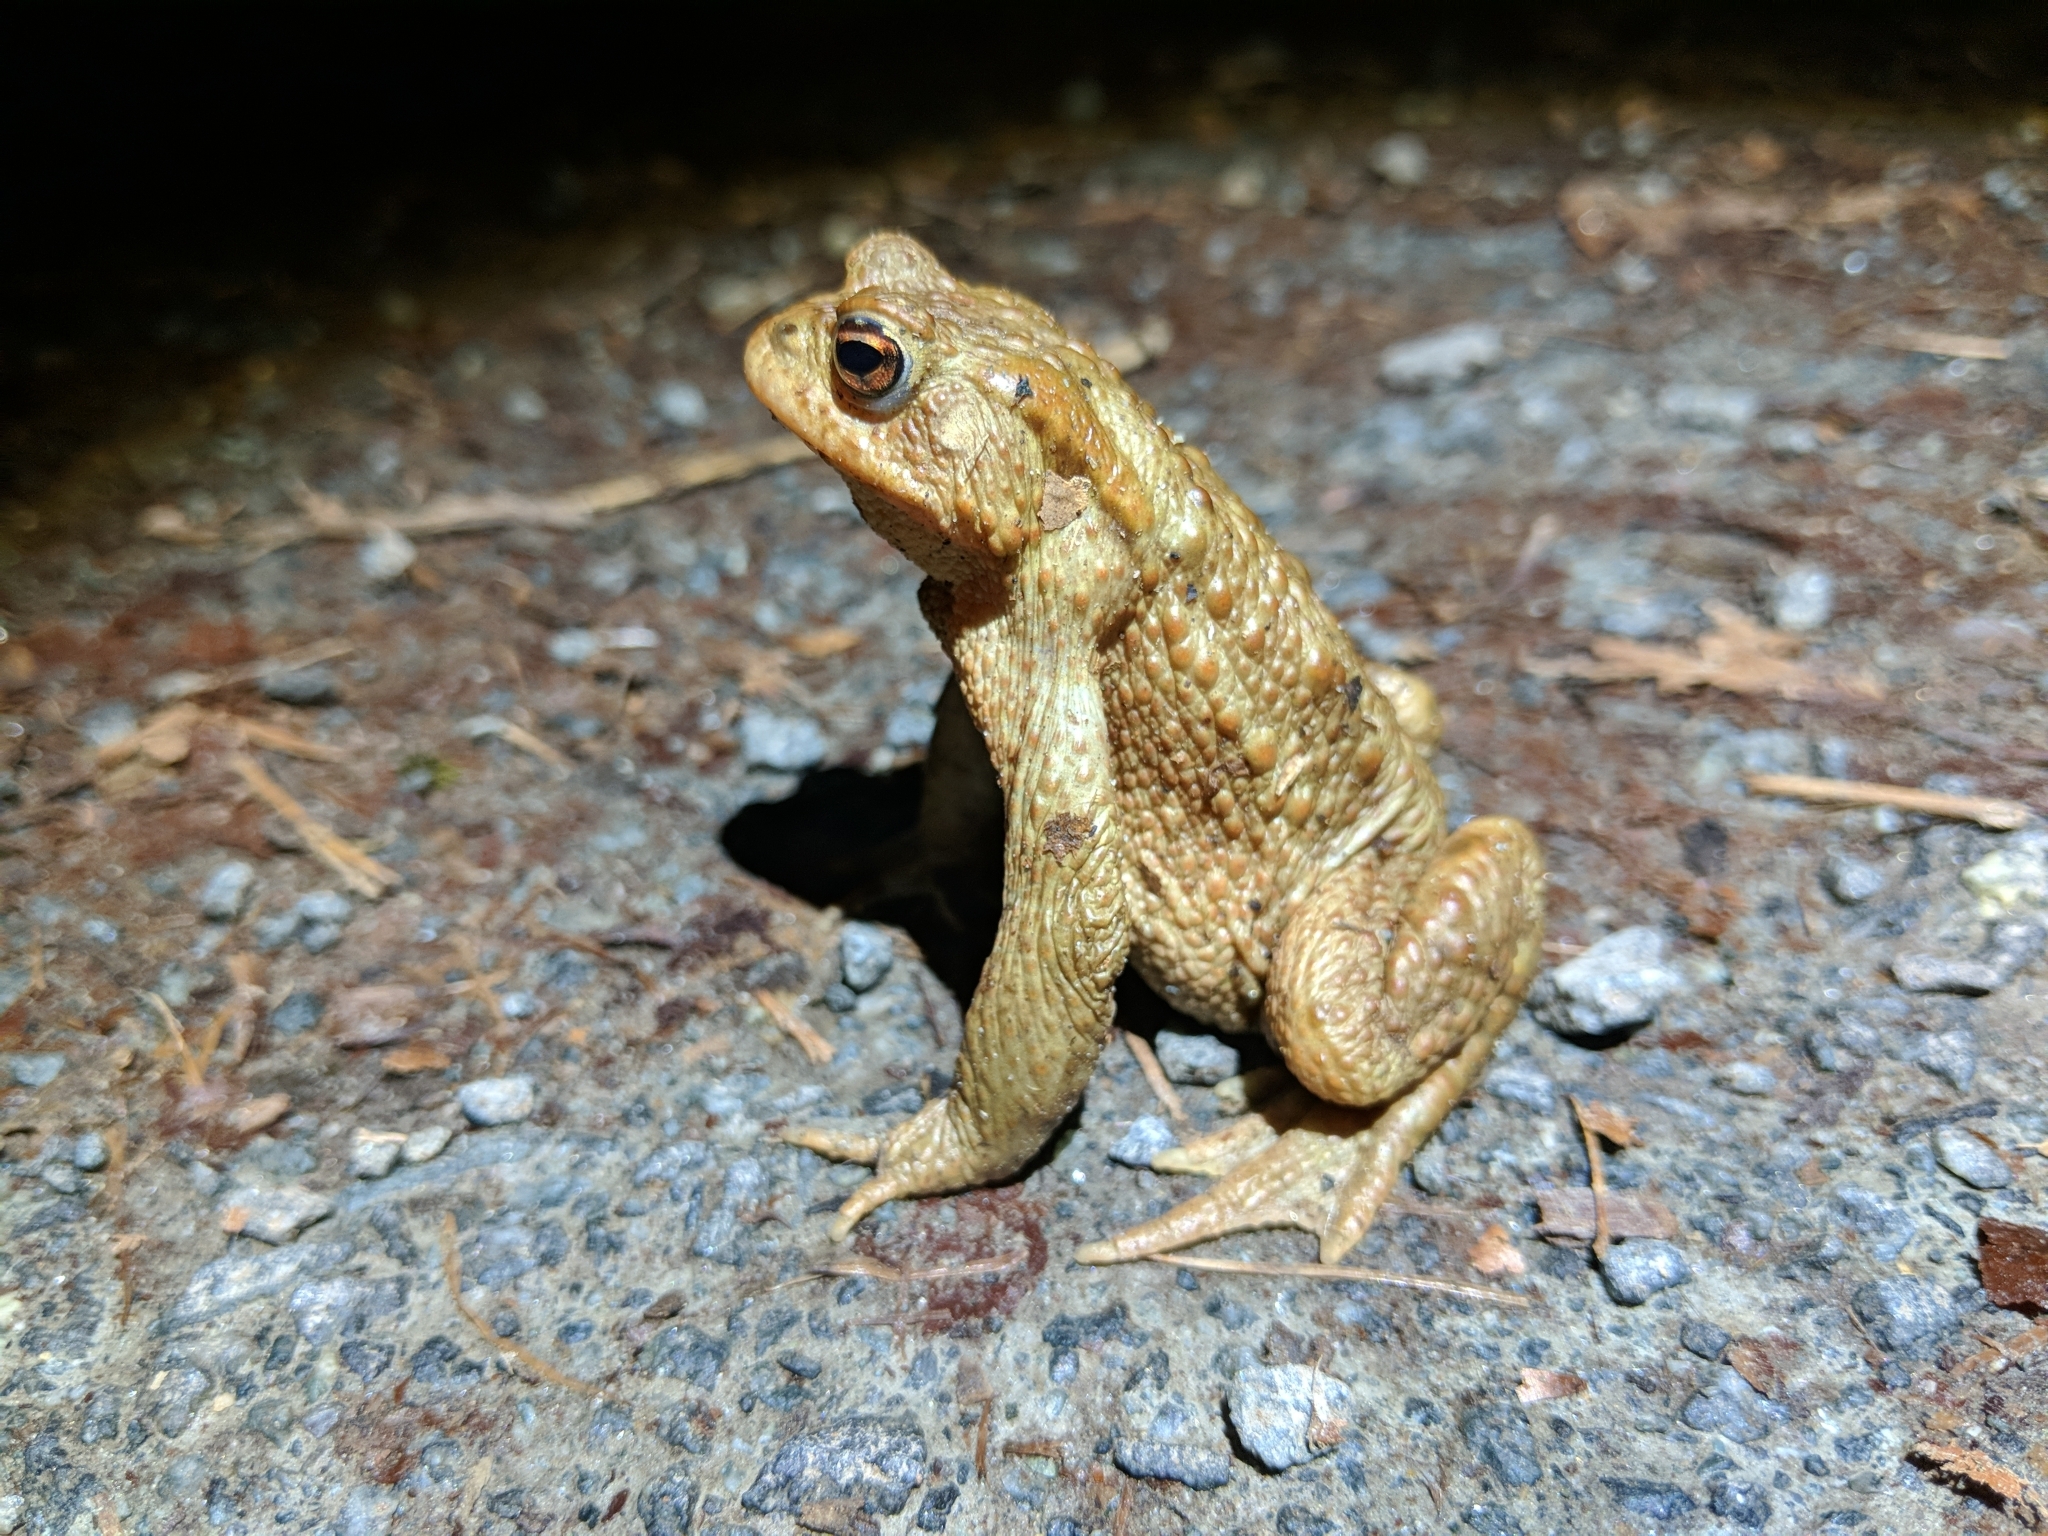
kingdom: Animalia
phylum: Chordata
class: Amphibia
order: Anura
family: Bufonidae
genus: Bufo
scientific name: Bufo bufo
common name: Common toad
